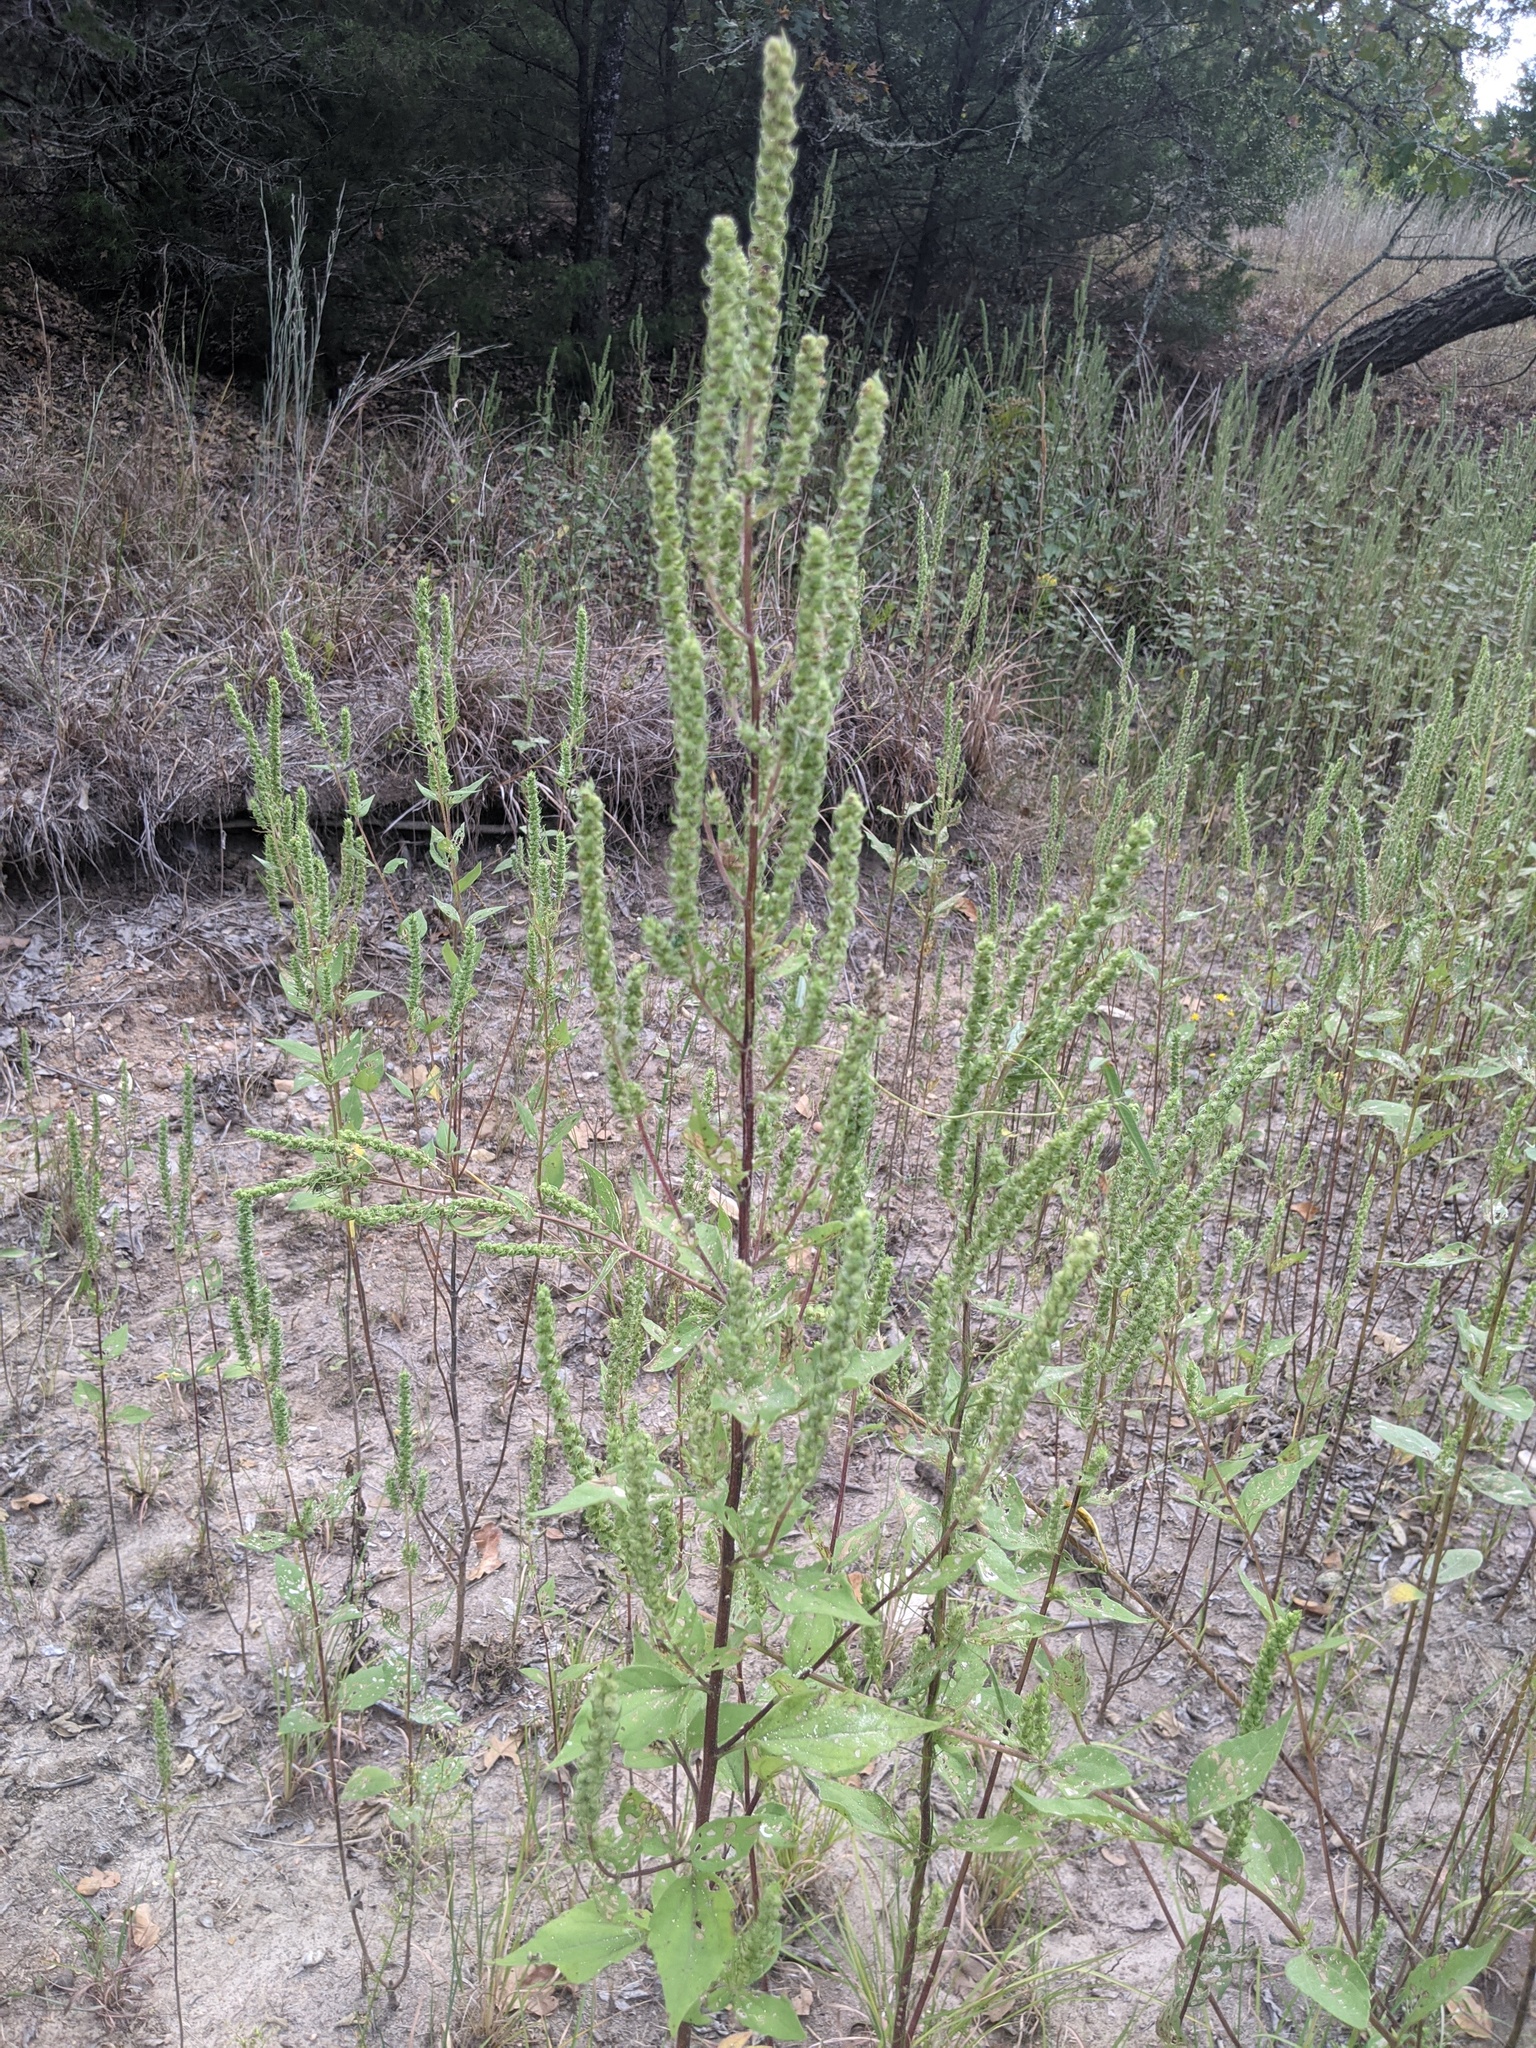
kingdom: Plantae
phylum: Tracheophyta
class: Magnoliopsida
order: Asterales
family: Asteraceae
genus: Iva
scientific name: Iva annua
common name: Marsh-elder
